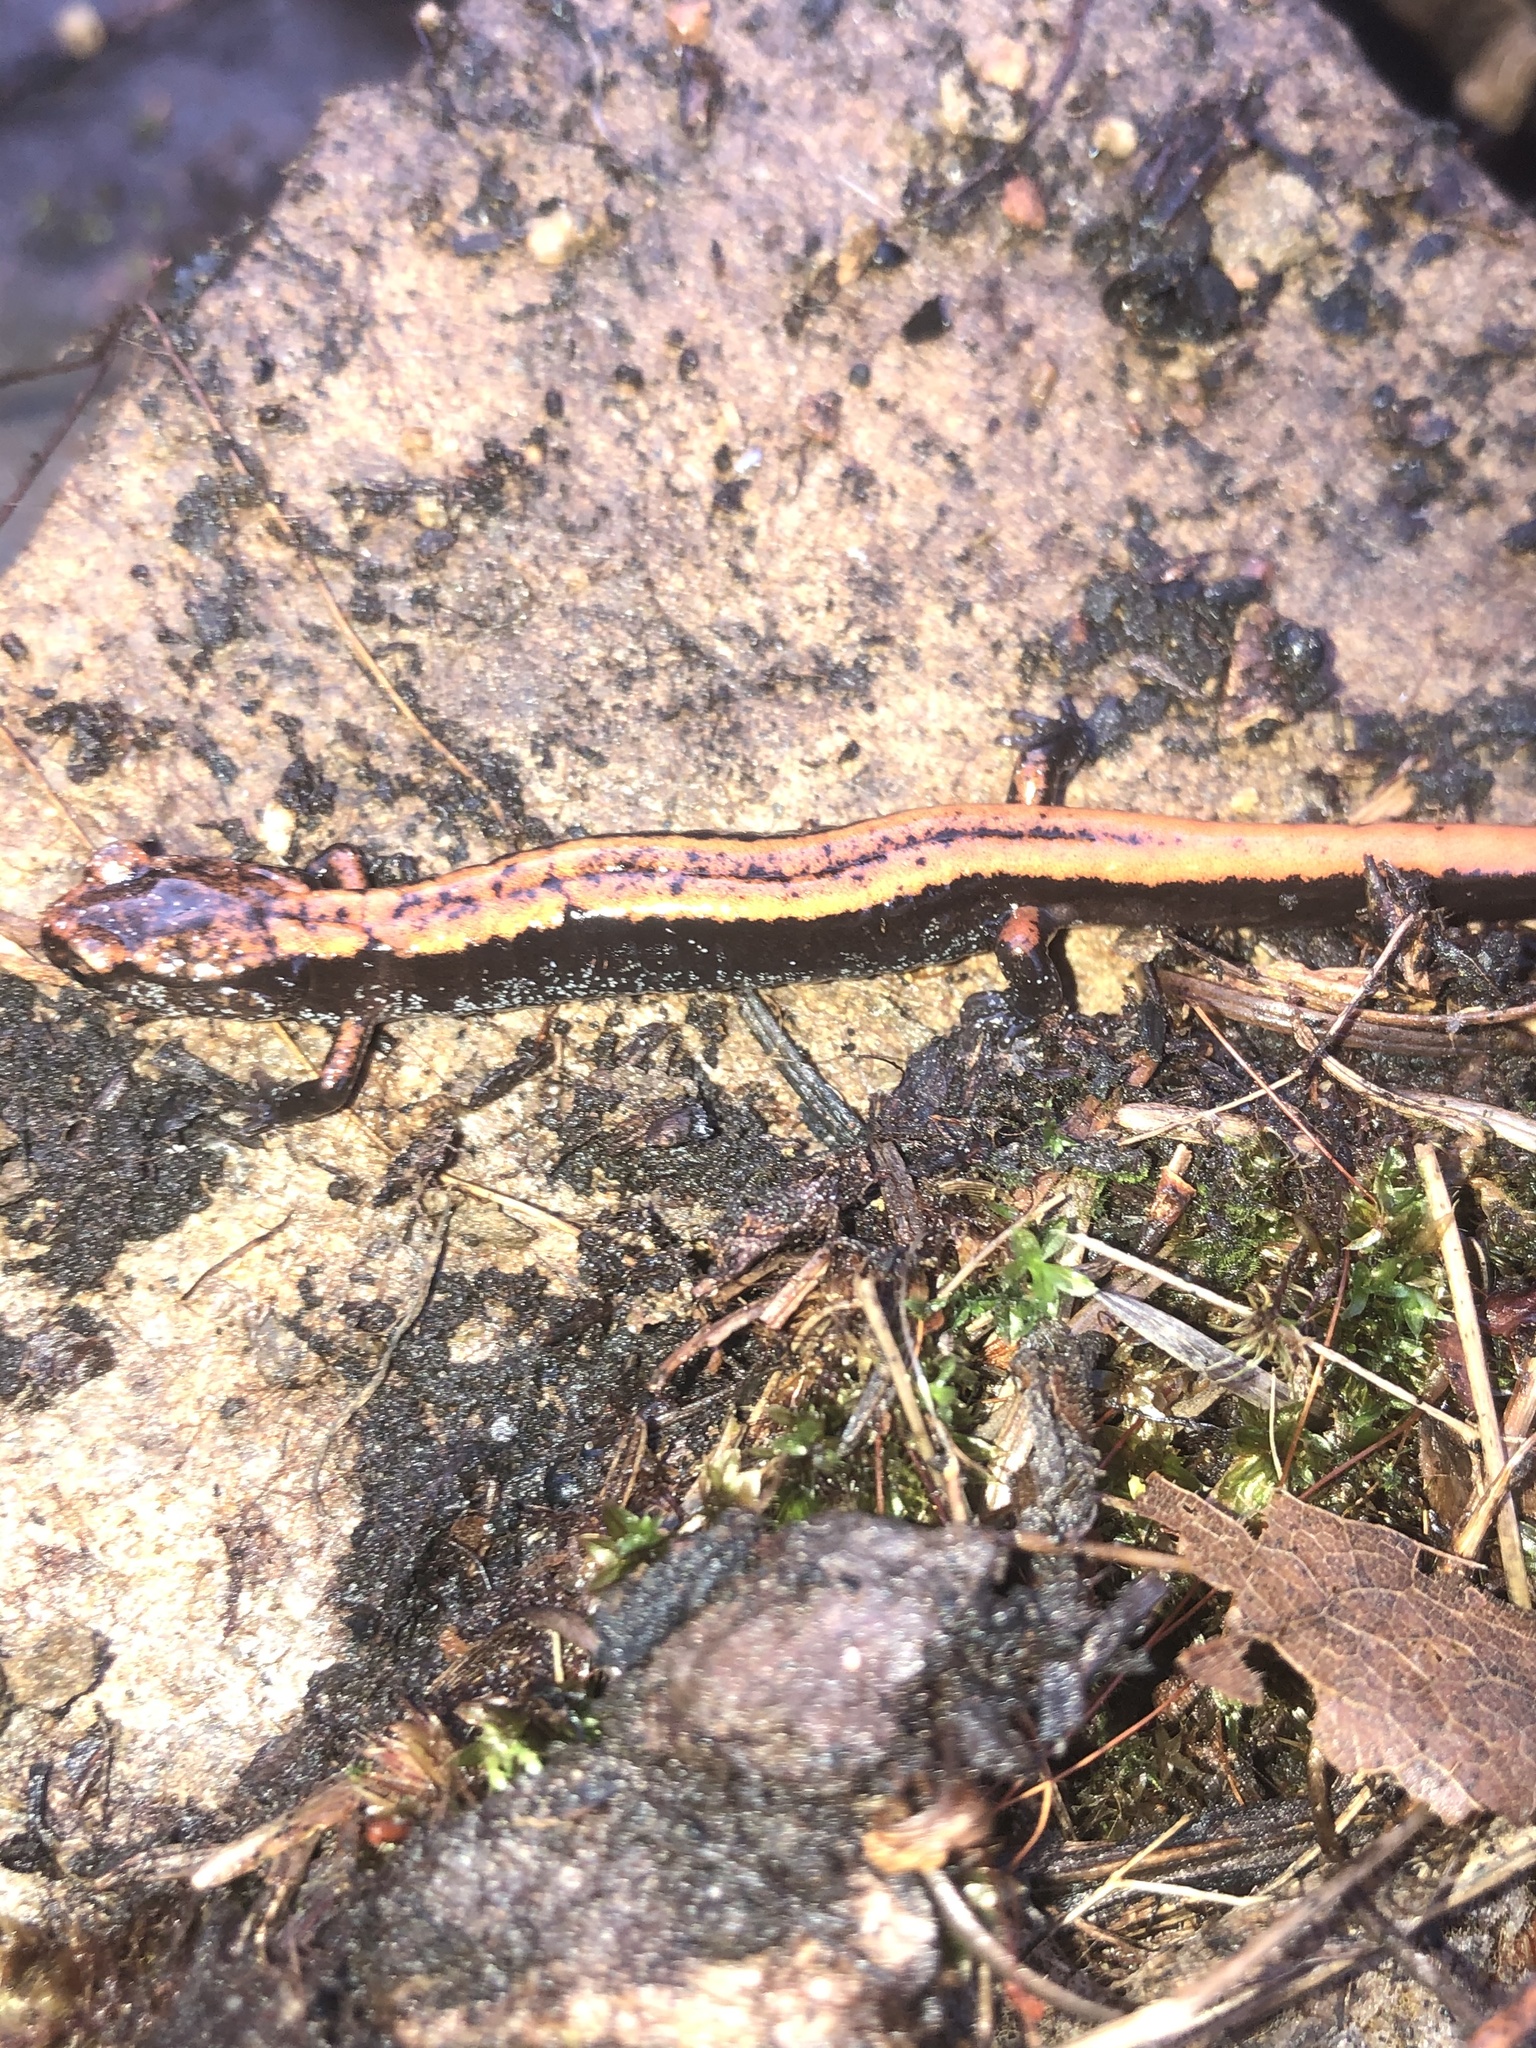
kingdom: Animalia
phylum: Chordata
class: Amphibia
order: Caudata
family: Plethodontidae
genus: Plethodon
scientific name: Plethodon vehiculum
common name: Western red-backed salamander
